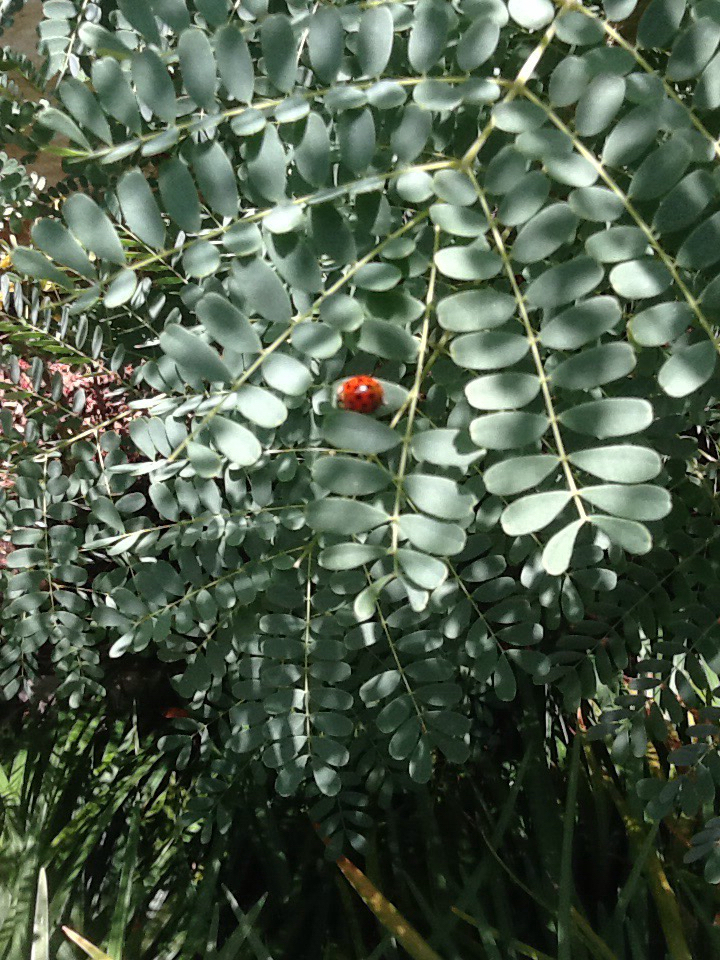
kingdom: Animalia
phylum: Arthropoda
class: Insecta
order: Coleoptera
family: Coccinellidae
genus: Harmonia
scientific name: Harmonia axyridis
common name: Harlequin ladybird
